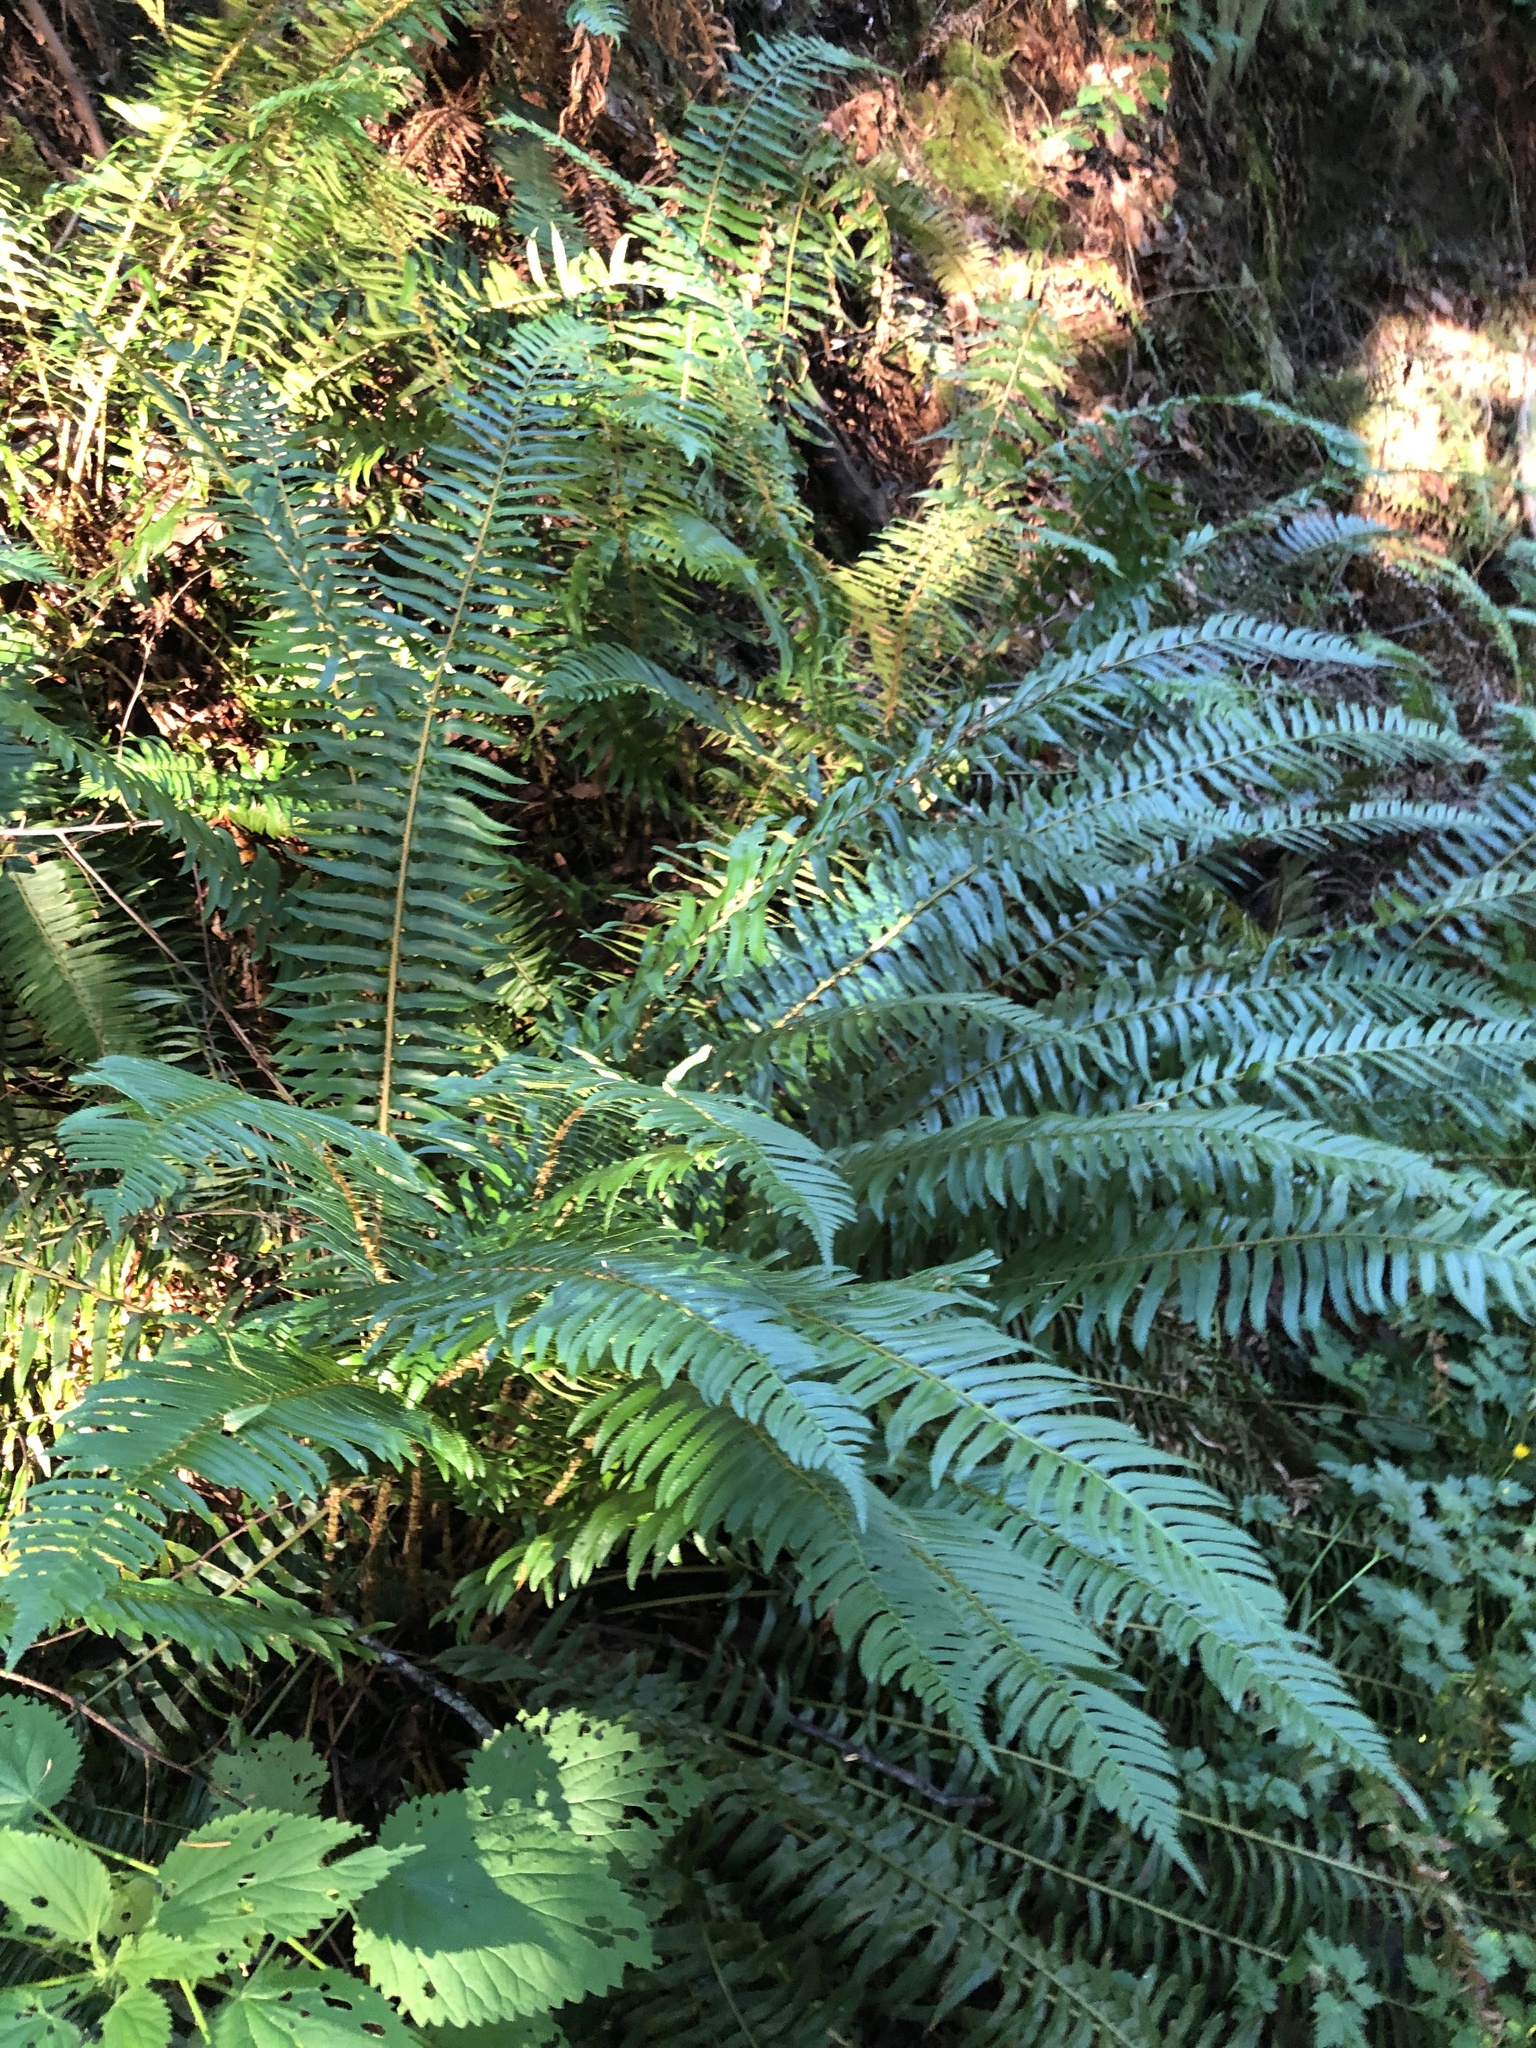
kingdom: Plantae
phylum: Tracheophyta
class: Polypodiopsida
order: Polypodiales
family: Dryopteridaceae
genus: Polystichum
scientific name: Polystichum munitum
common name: Western sword-fern
